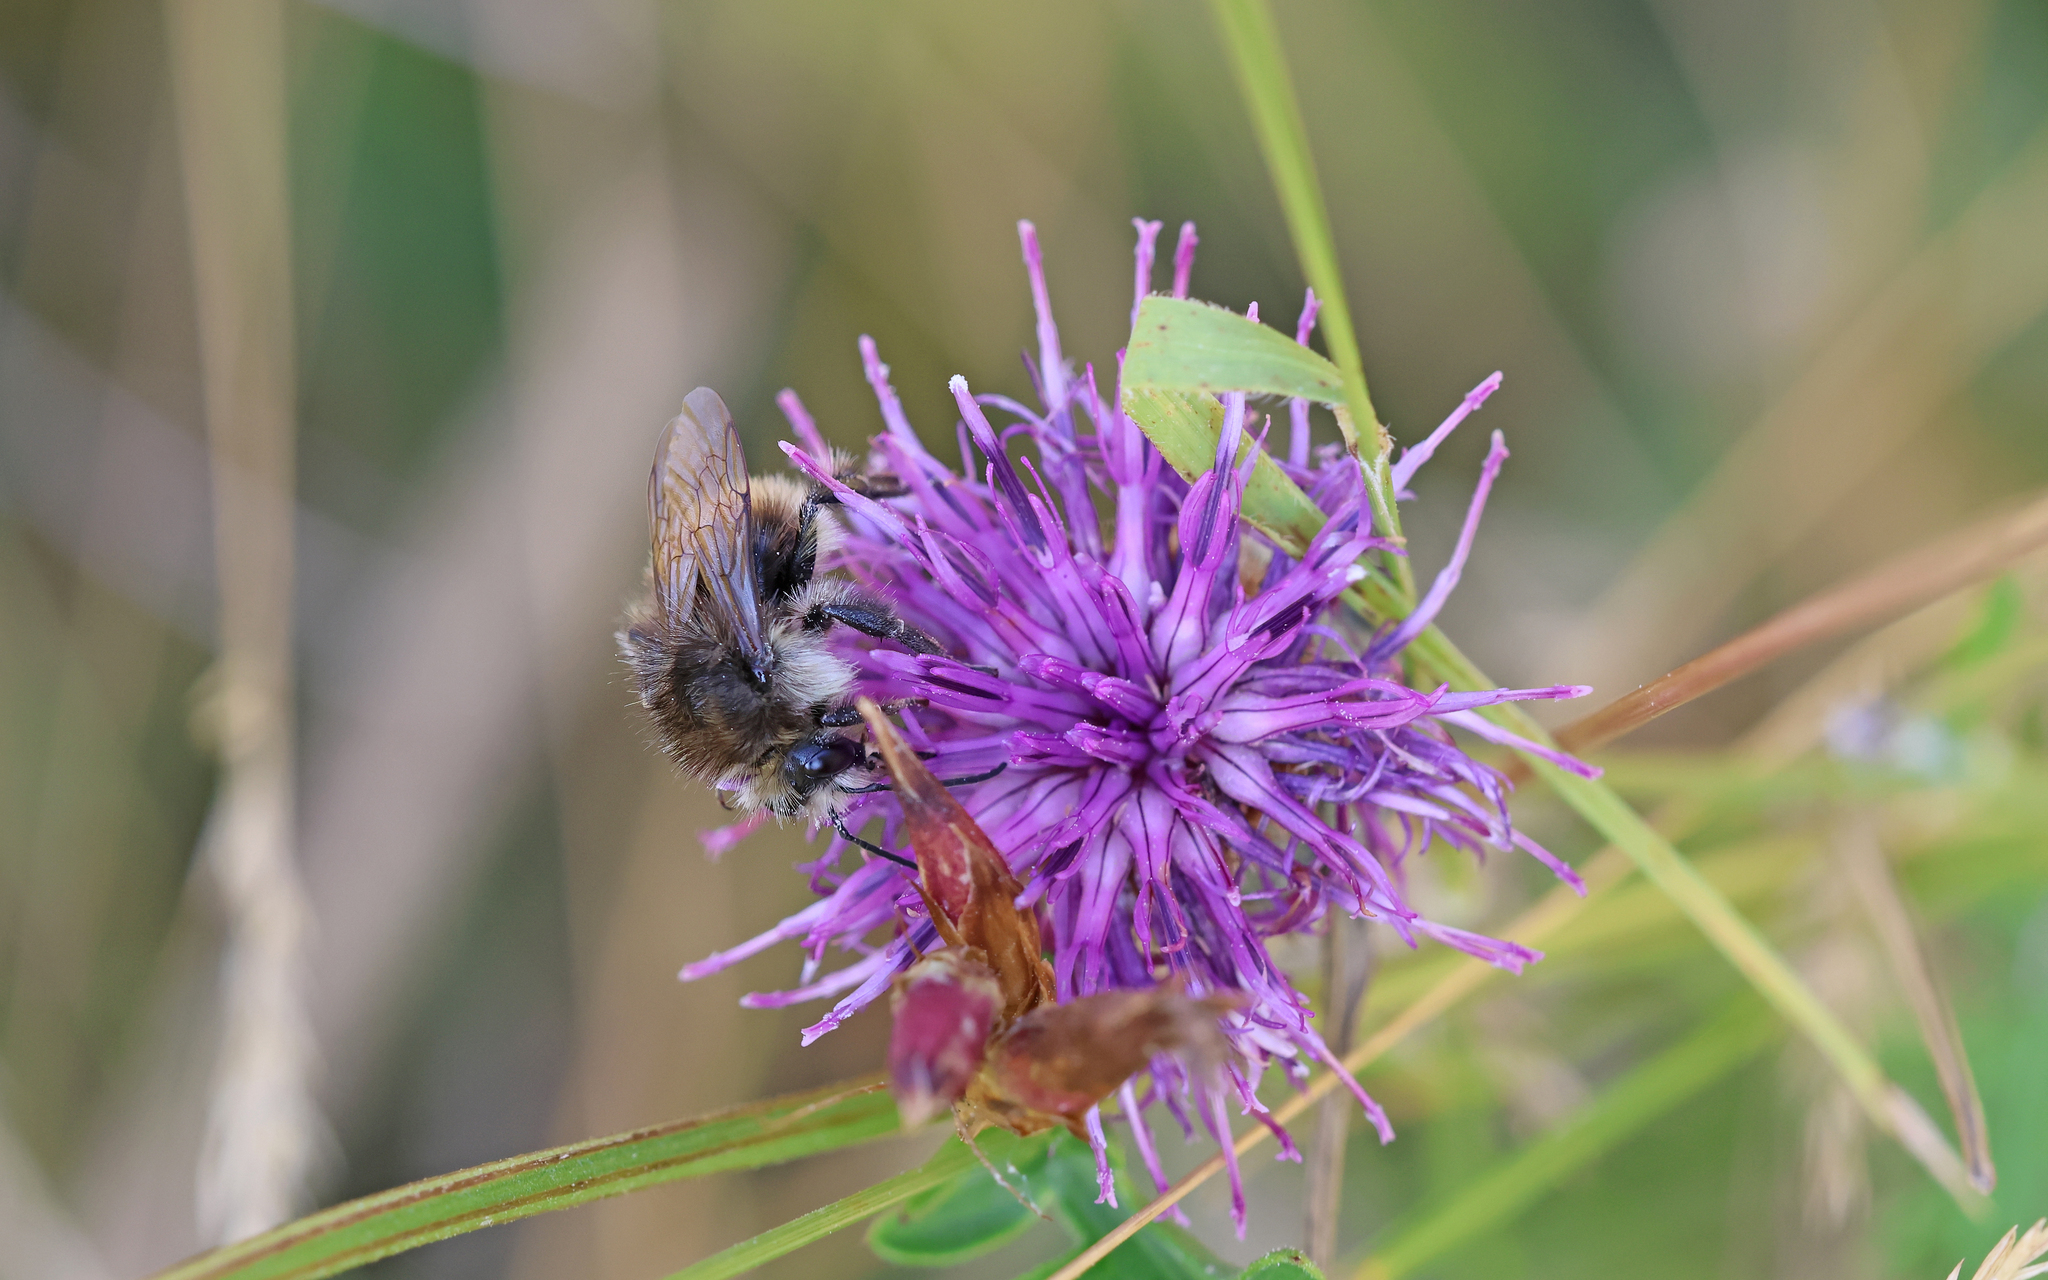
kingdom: Animalia
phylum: Arthropoda
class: Insecta
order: Hymenoptera
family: Apidae
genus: Bombus
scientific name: Bombus humilis
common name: Brown-banded carder-bee
